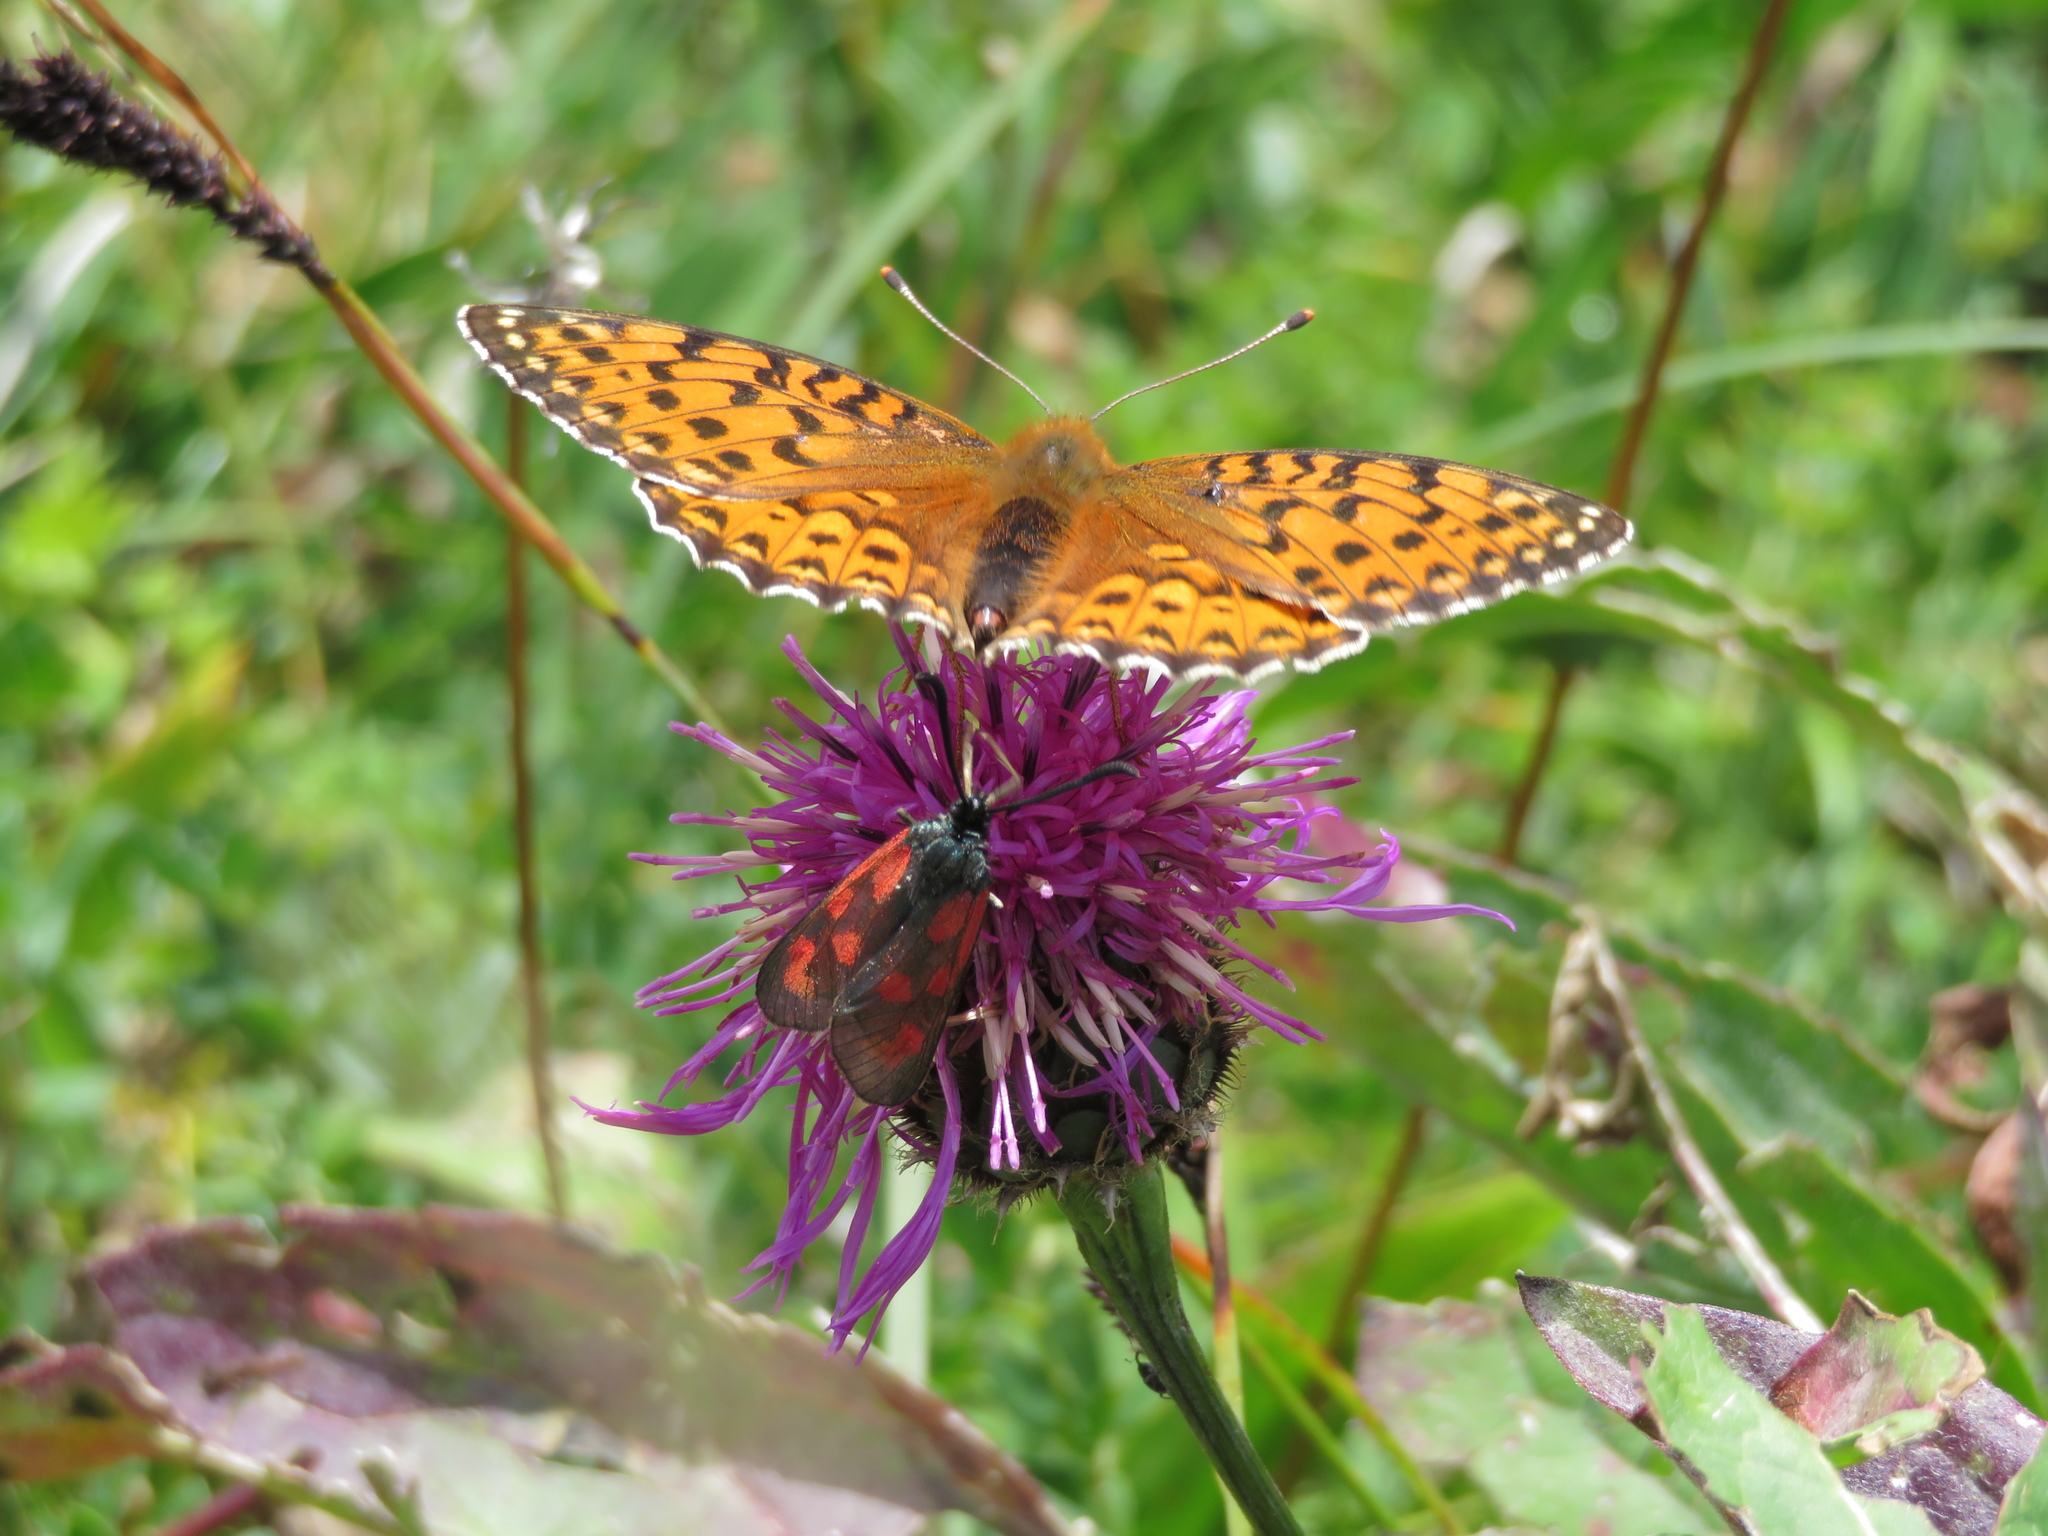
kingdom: Animalia
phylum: Arthropoda
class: Insecta
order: Lepidoptera
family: Zygaenidae
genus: Zygaena
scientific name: Zygaena loti
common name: Slender scotch burnet
